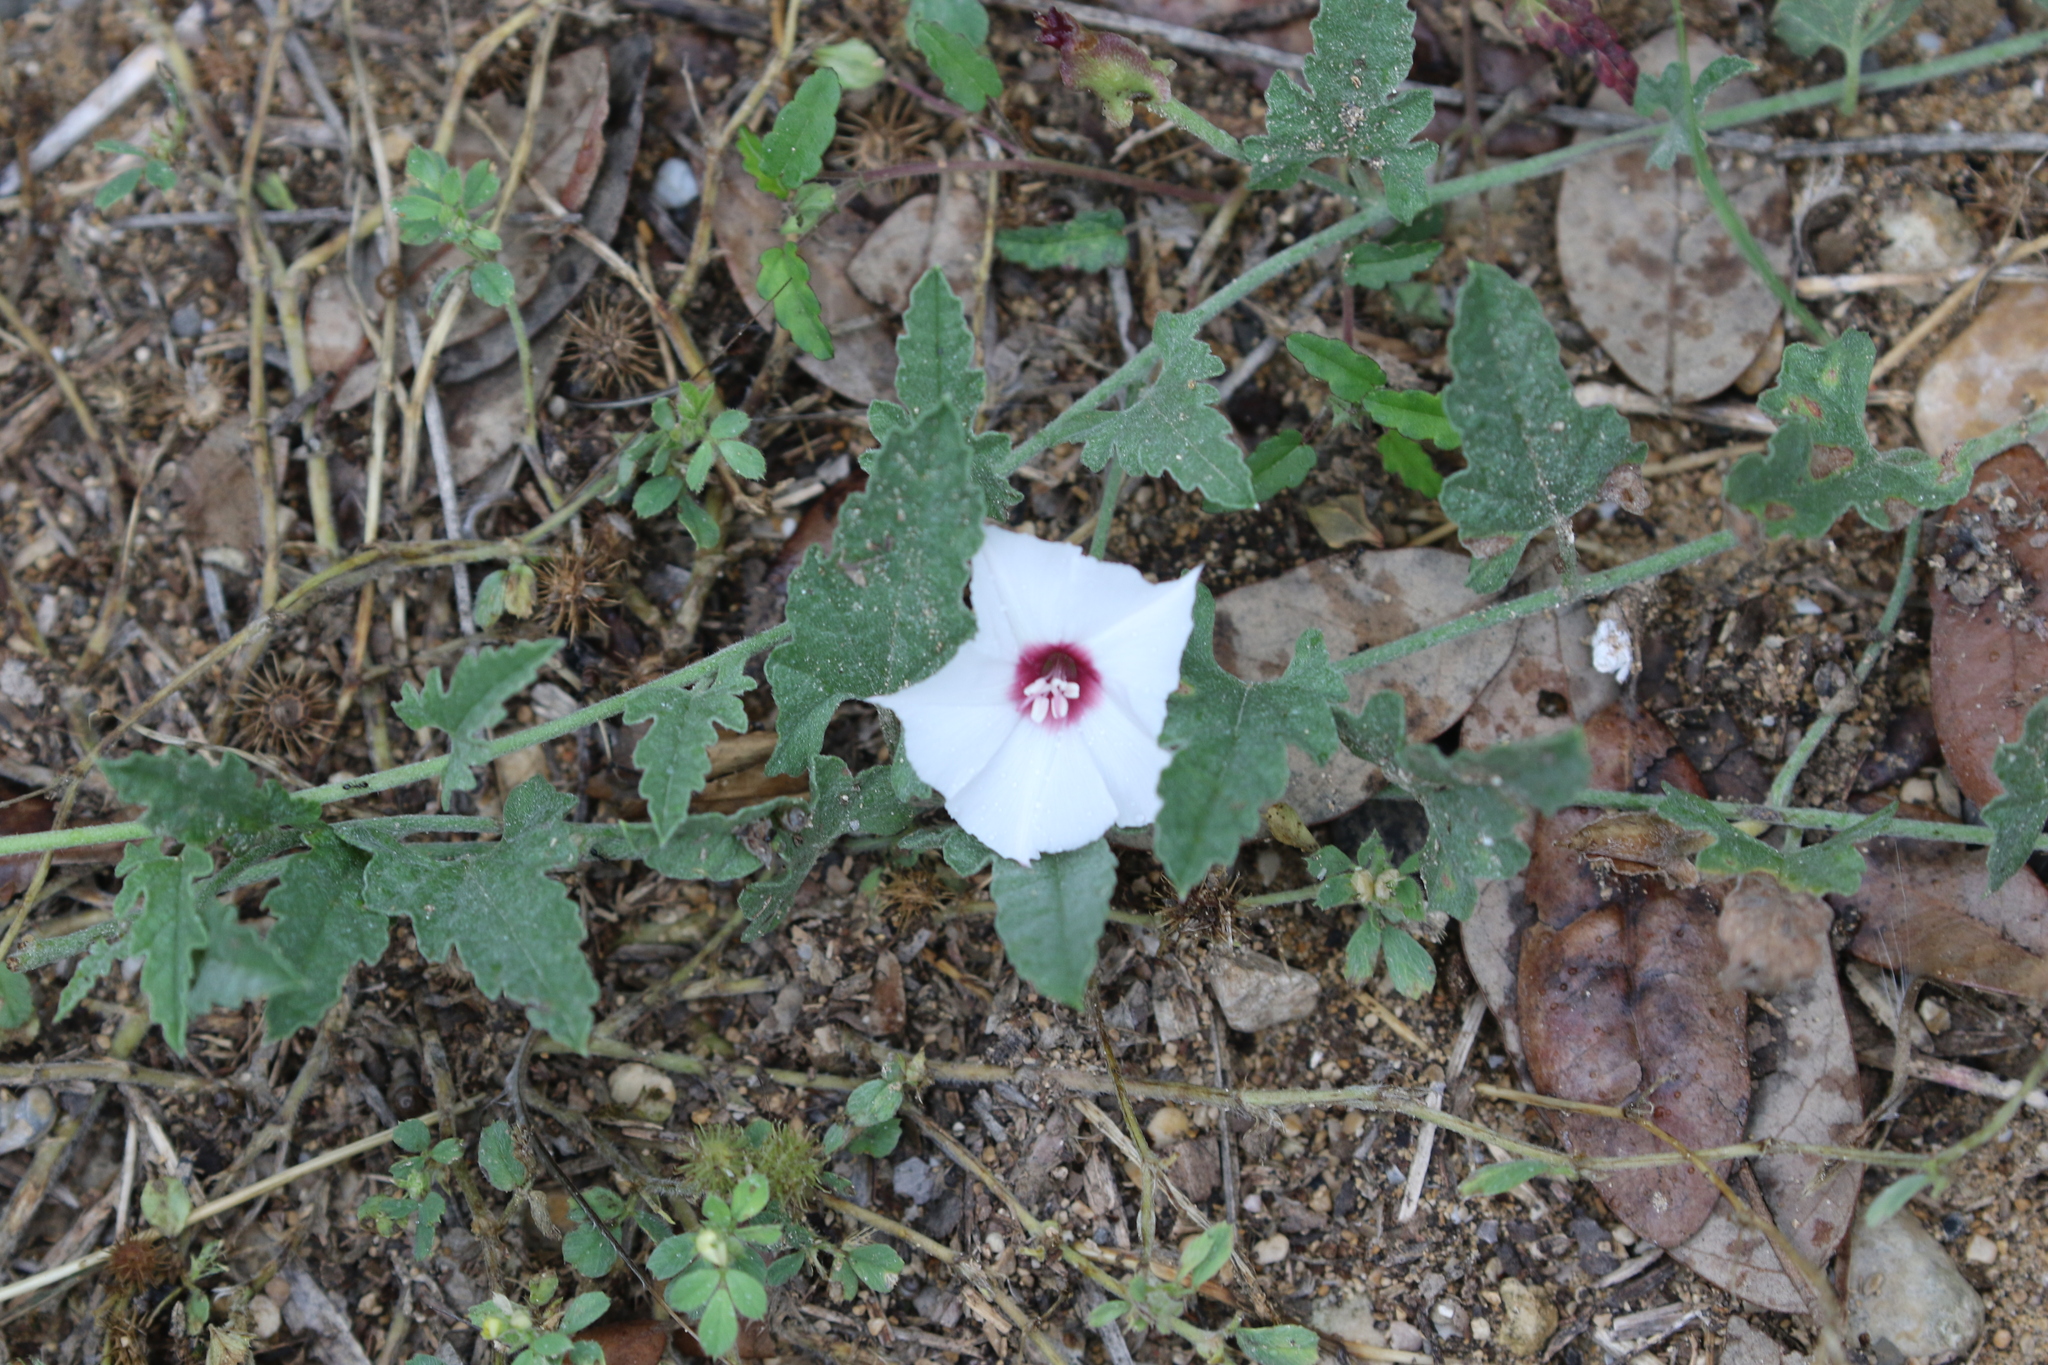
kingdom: Plantae
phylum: Tracheophyta
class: Magnoliopsida
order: Solanales
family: Convolvulaceae
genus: Convolvulus
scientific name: Convolvulus equitans
